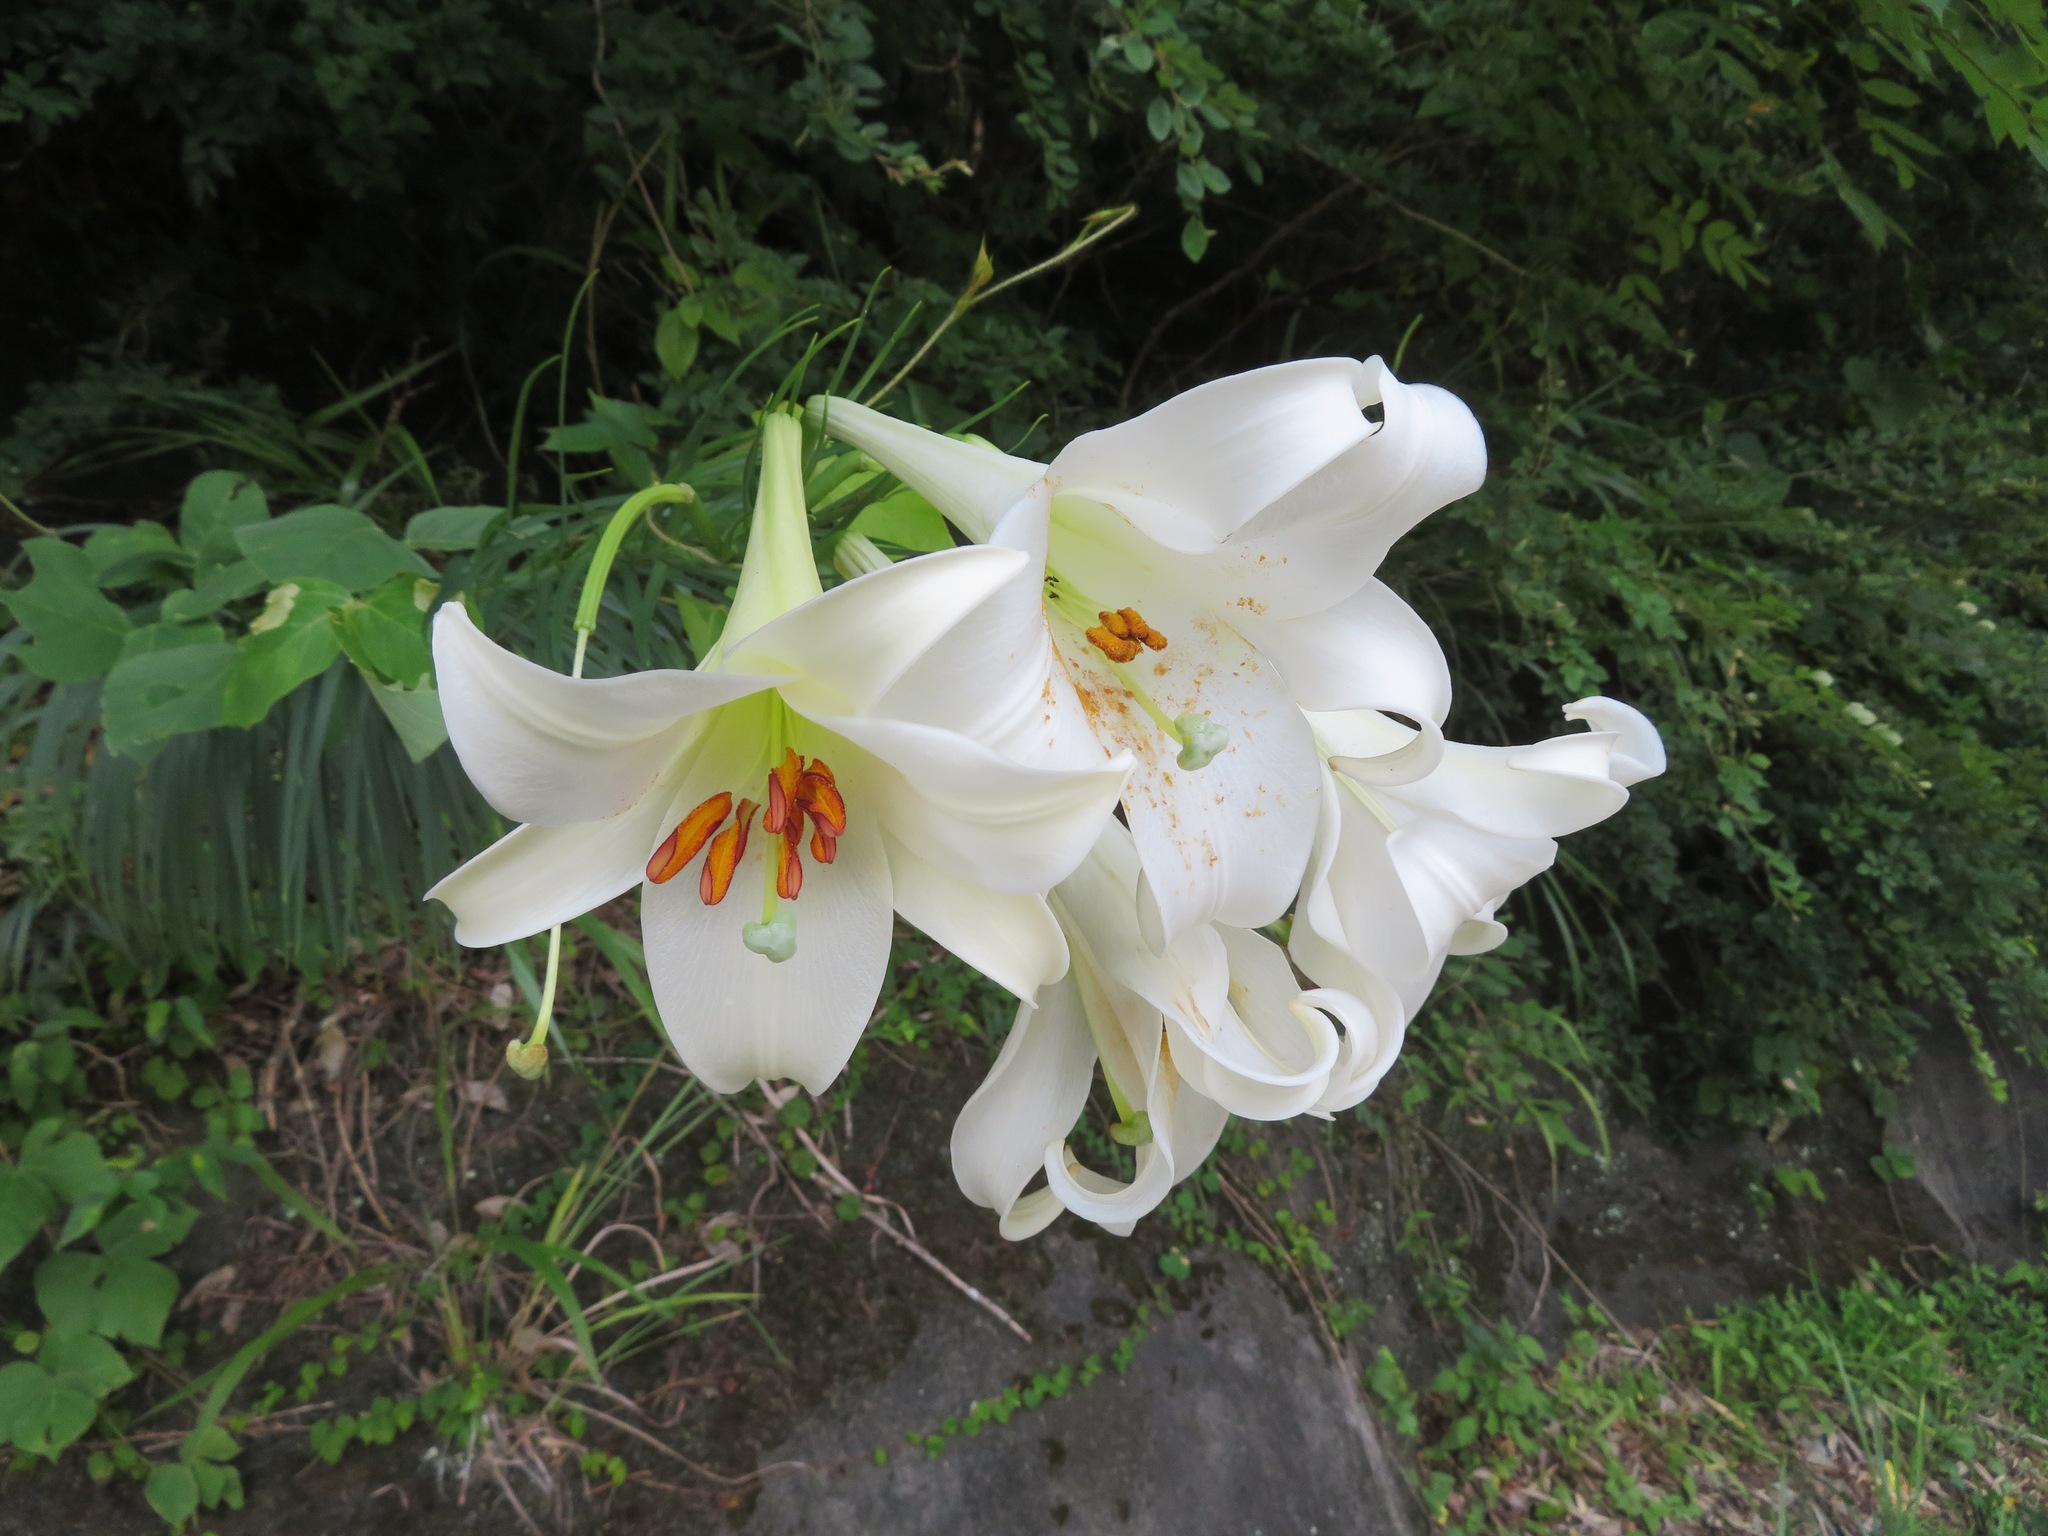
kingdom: Plantae
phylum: Tracheophyta
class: Liliopsida
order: Liliales
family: Liliaceae
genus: Lilium
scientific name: Lilium formosanum
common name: Formosa lily
